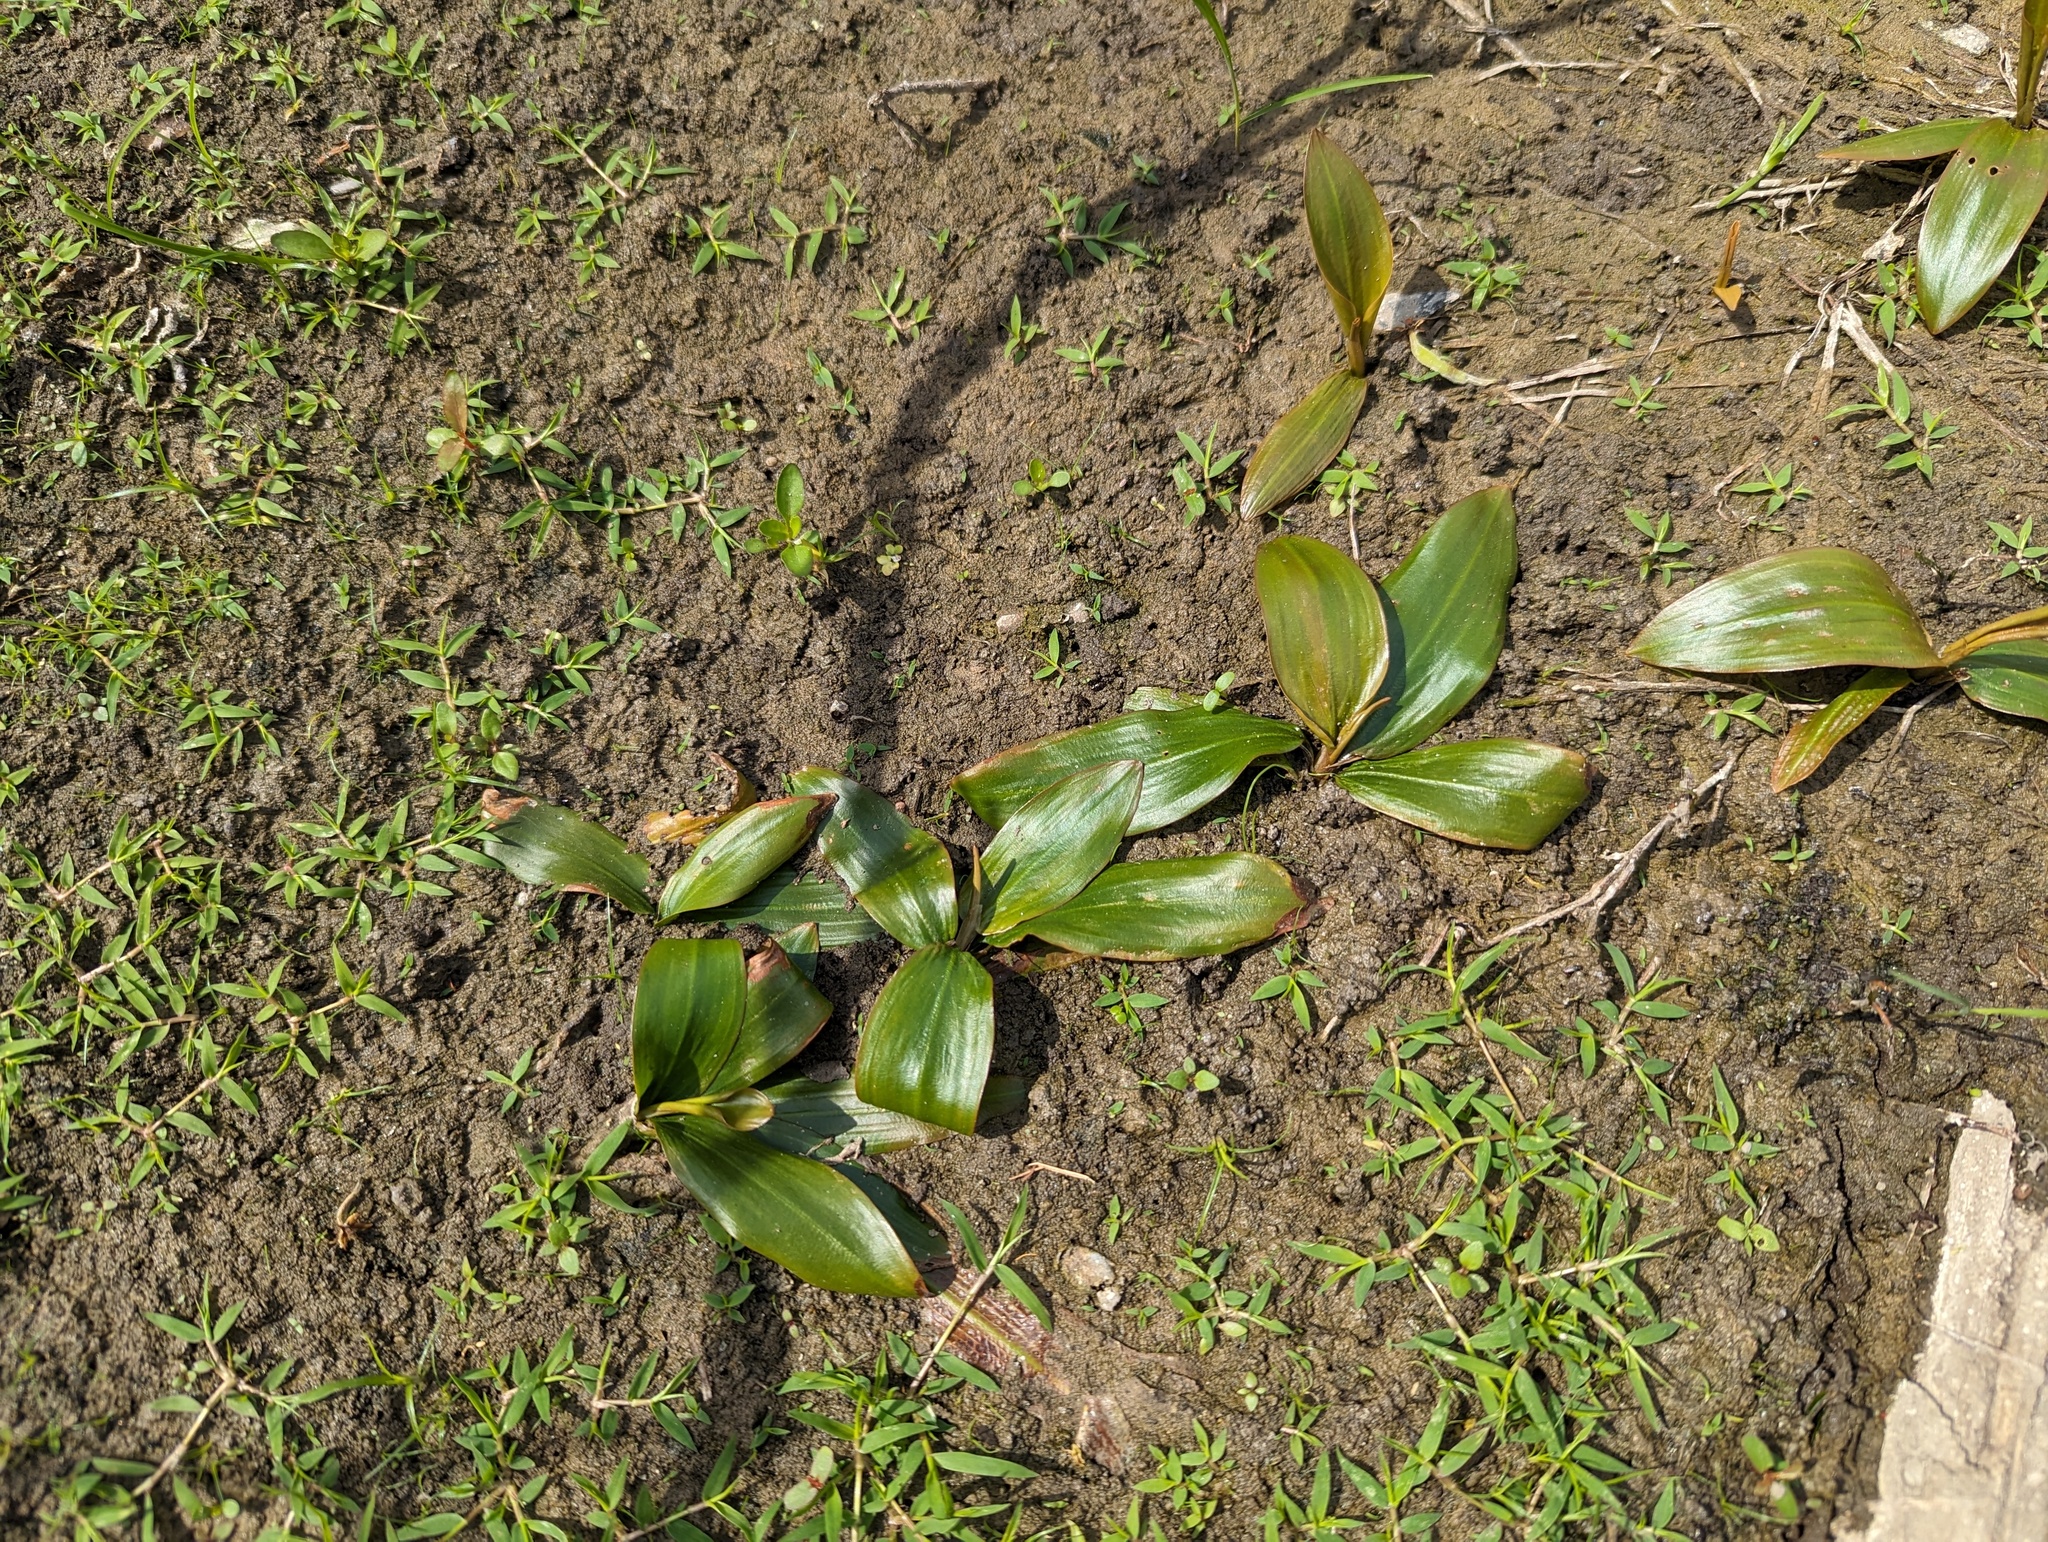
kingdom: Plantae
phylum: Tracheophyta
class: Liliopsida
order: Alismatales
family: Potamogetonaceae
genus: Potamogeton
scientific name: Potamogeton nodosus
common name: Loddon pondweed
